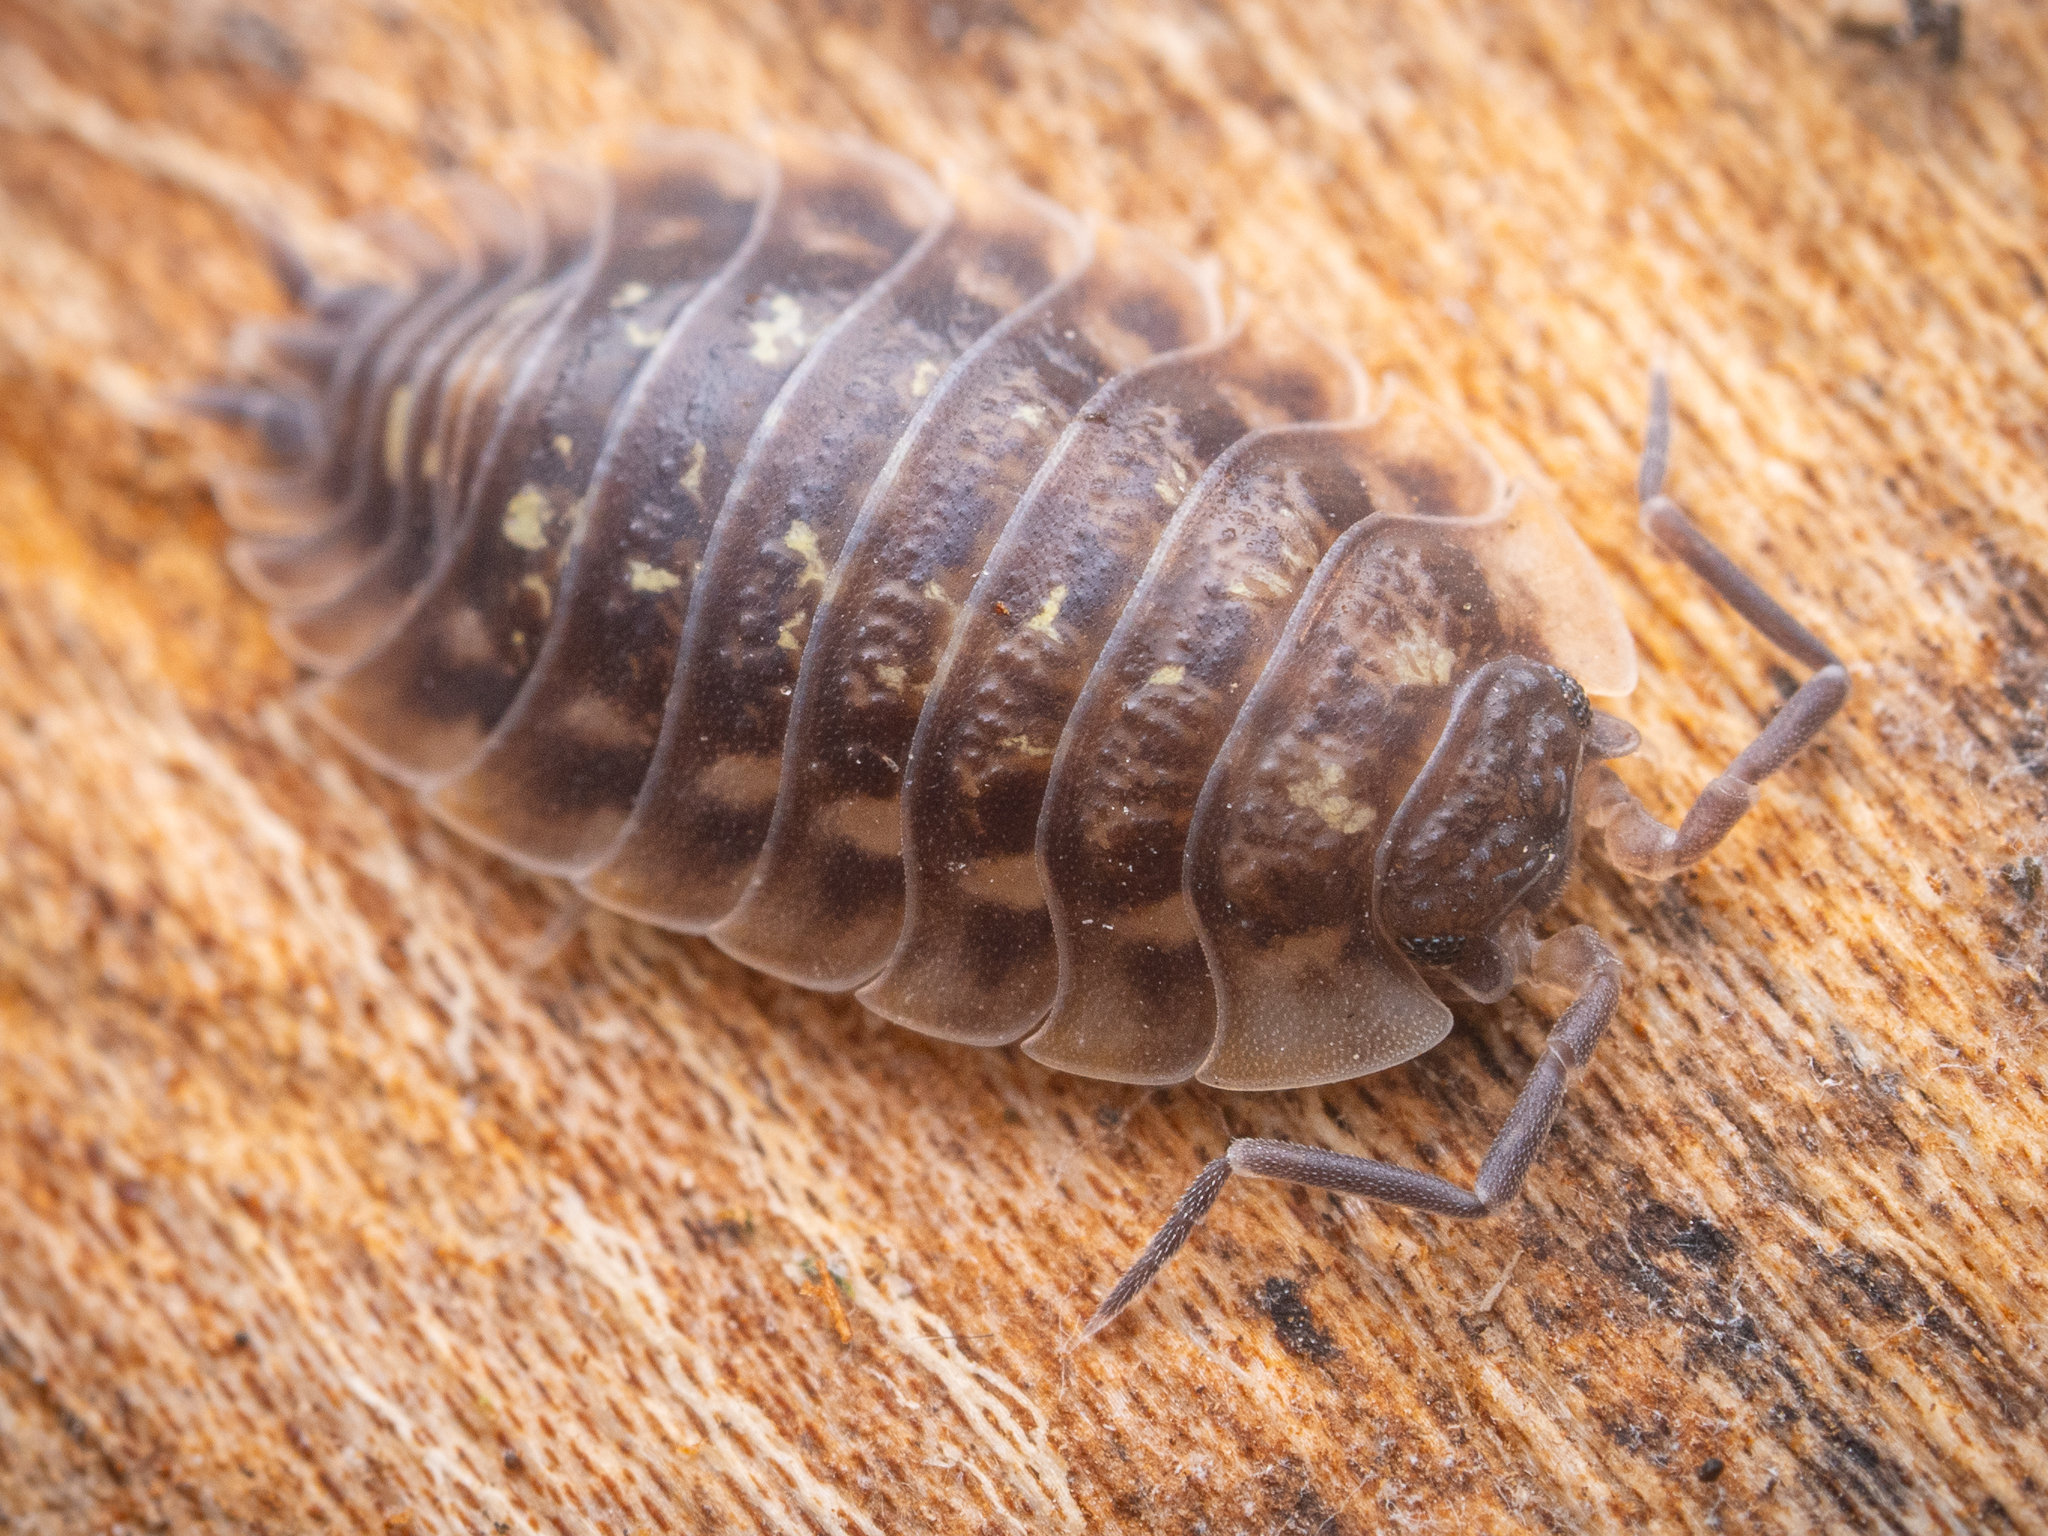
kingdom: Animalia
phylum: Arthropoda
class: Malacostraca
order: Isopoda
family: Oniscidae
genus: Oniscus
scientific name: Oniscus asellus
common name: Common shiny woodlouse
